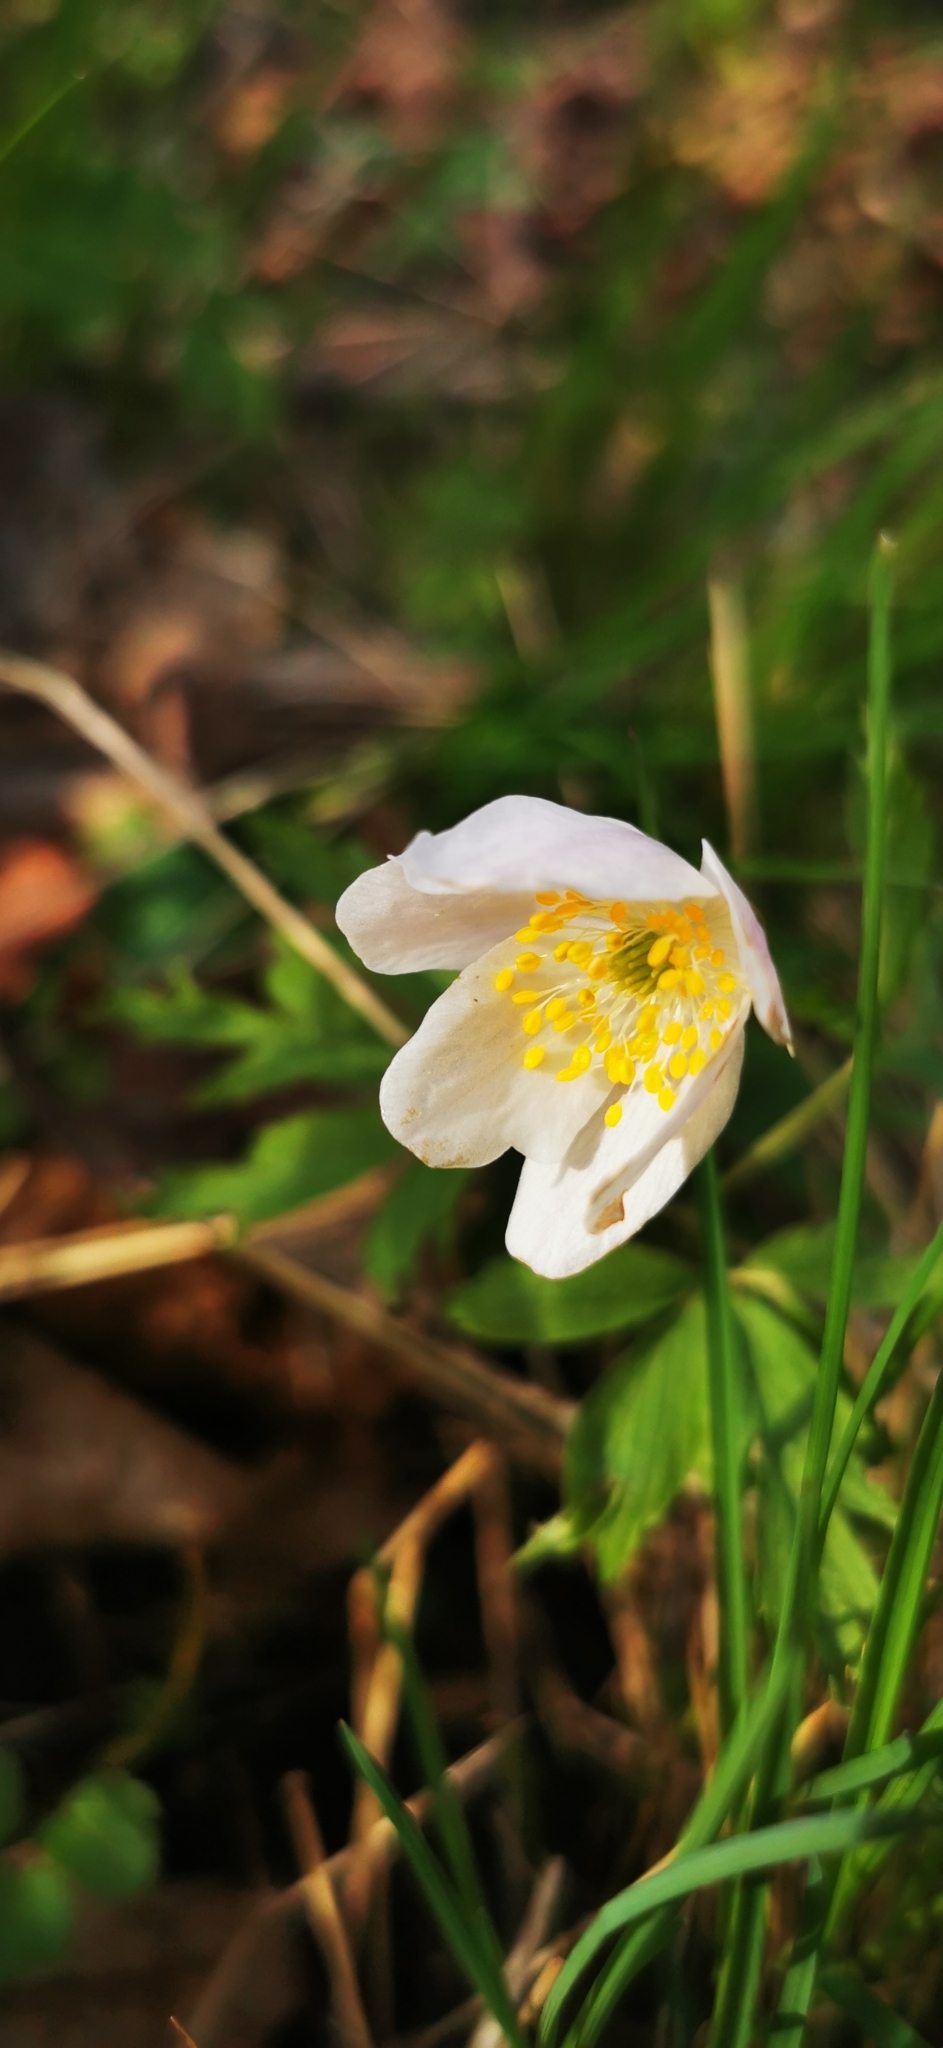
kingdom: Plantae
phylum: Tracheophyta
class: Magnoliopsida
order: Ranunculales
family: Ranunculaceae
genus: Anemone
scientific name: Anemone nemorosa
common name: Wood anemone
